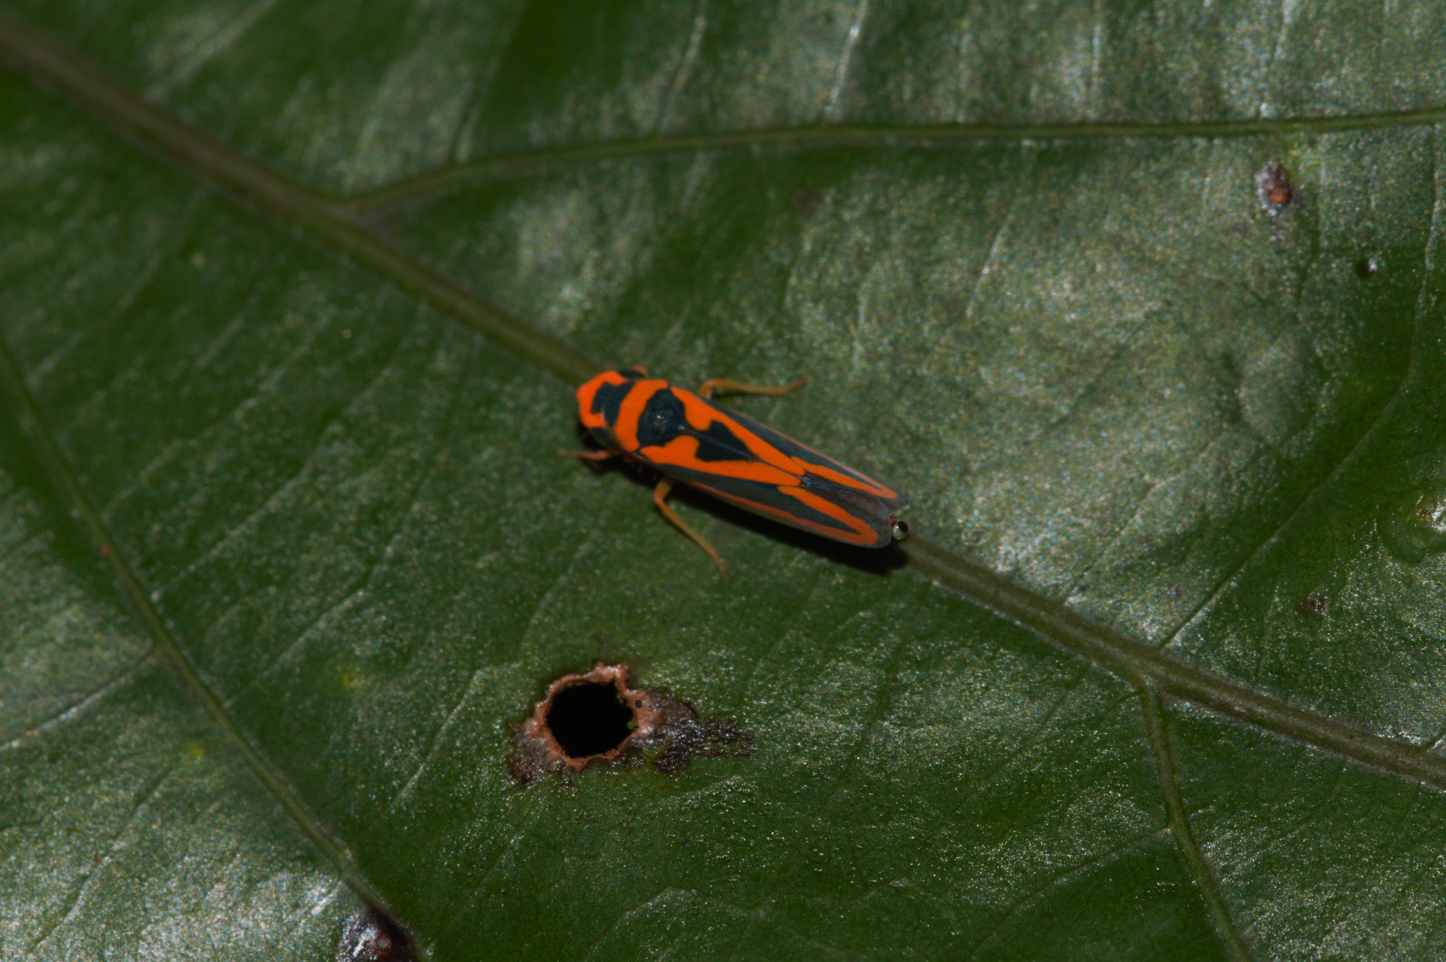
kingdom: Animalia
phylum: Arthropoda
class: Insecta
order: Hemiptera
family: Cicadellidae
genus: Palingonalia
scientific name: Palingonalia bigutta
